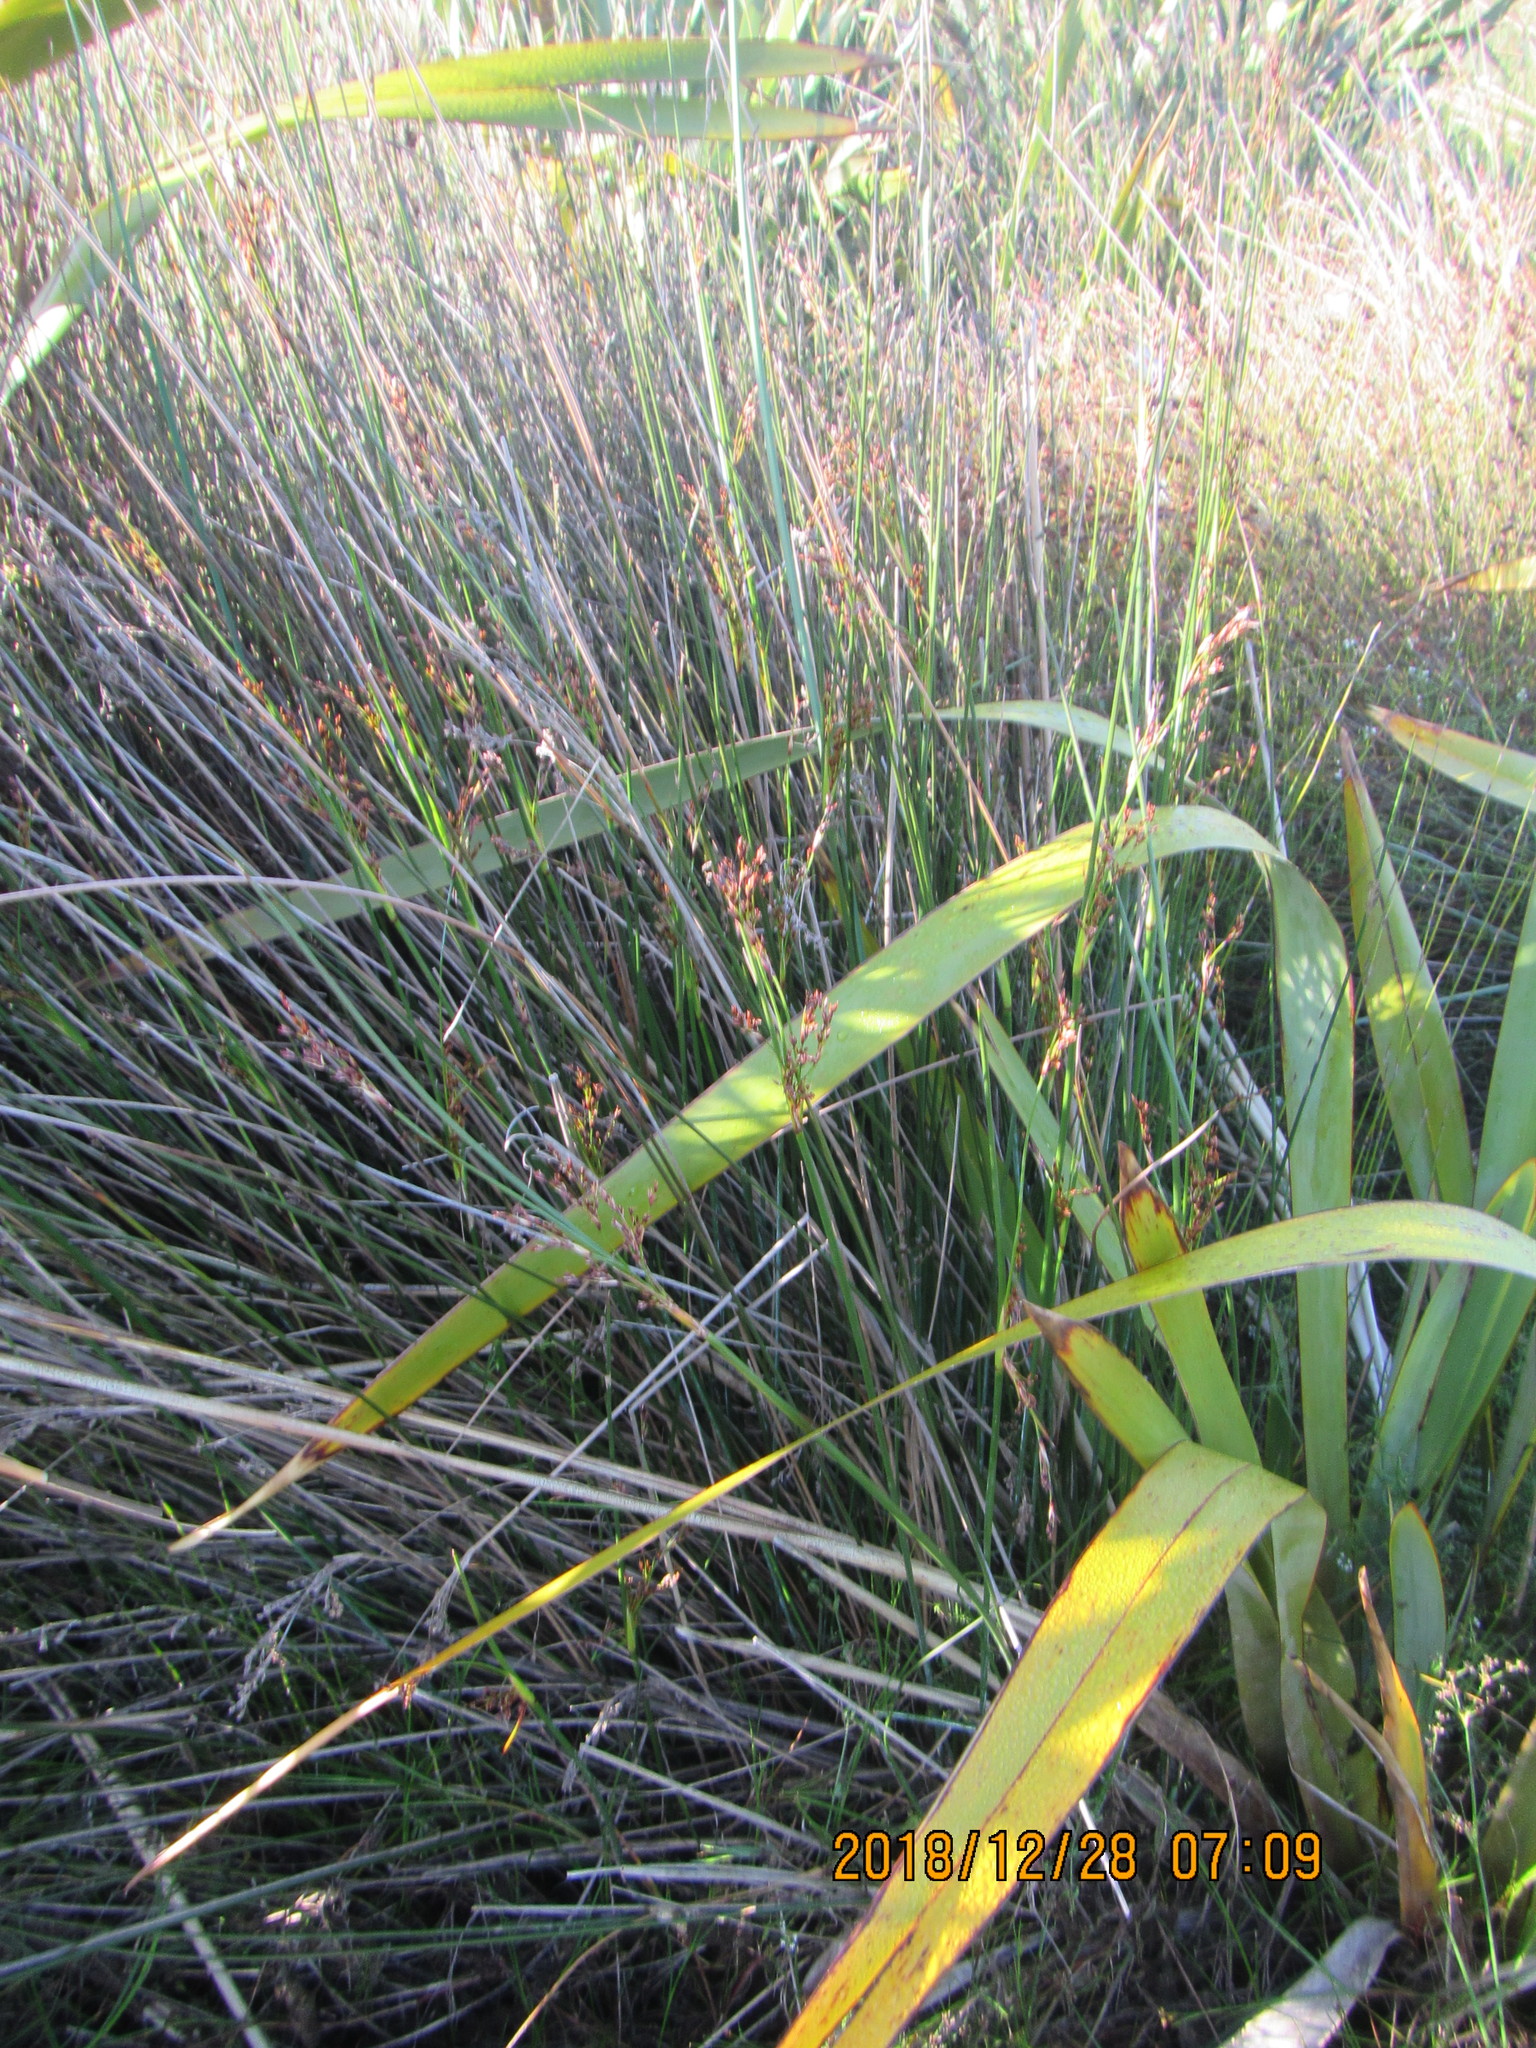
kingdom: Plantae
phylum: Tracheophyta
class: Liliopsida
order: Poales
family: Juncaceae
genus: Juncus
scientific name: Juncus kraussii
